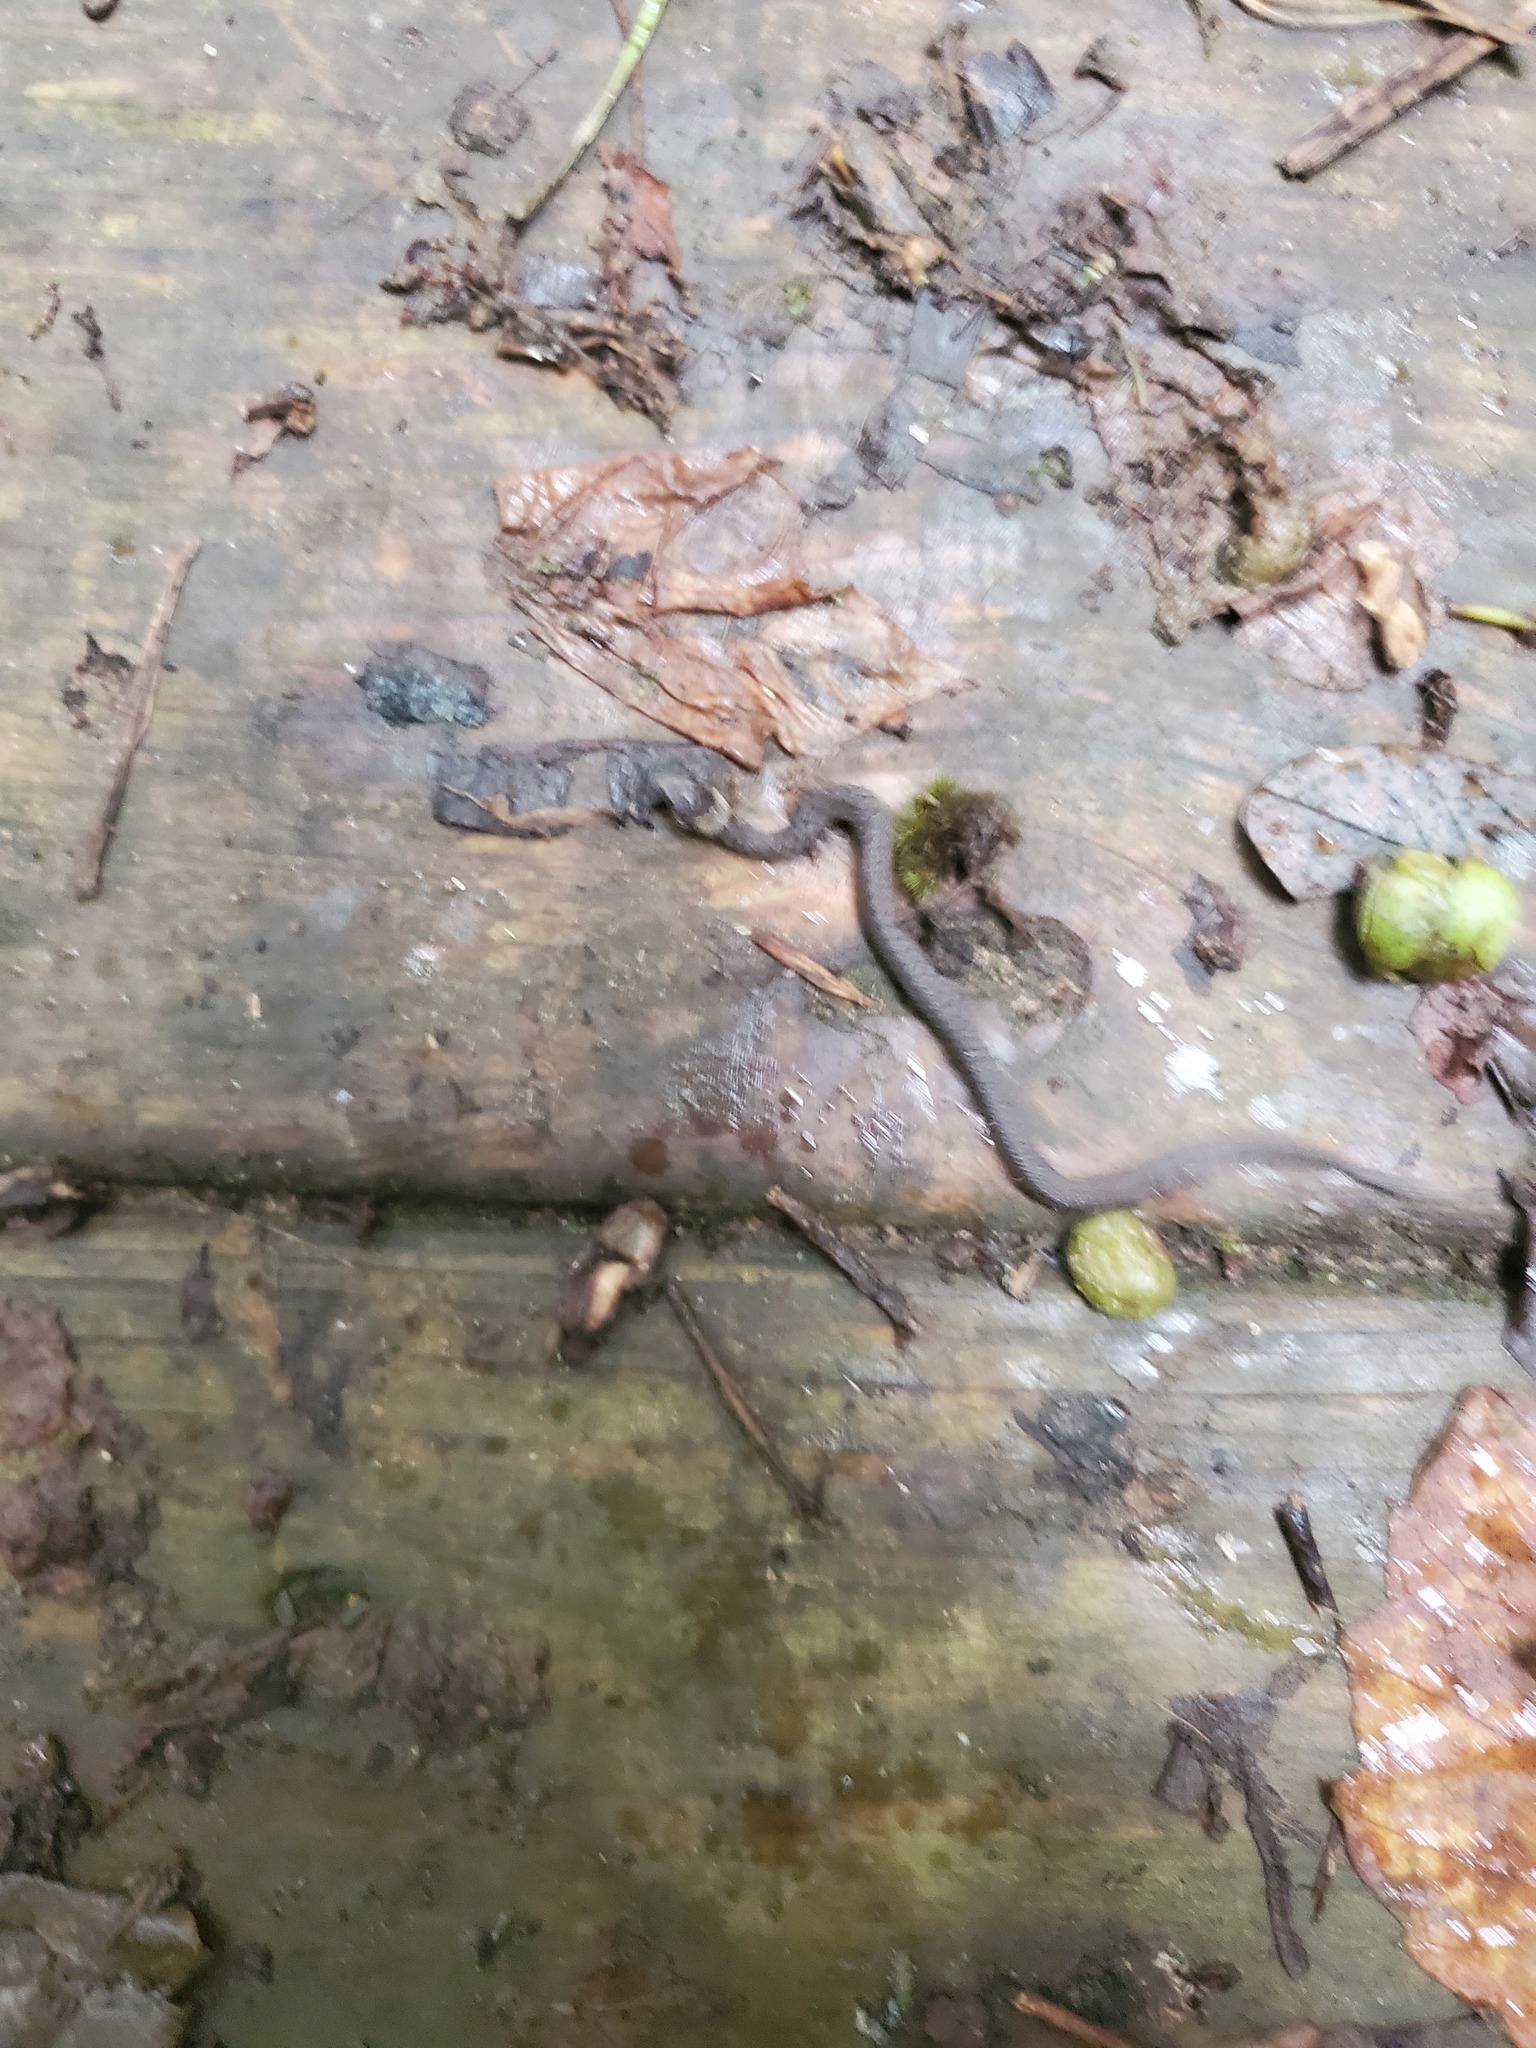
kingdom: Animalia
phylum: Chordata
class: Squamata
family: Colubridae
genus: Storeria
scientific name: Storeria dekayi
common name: (dekay’s) brown snake
